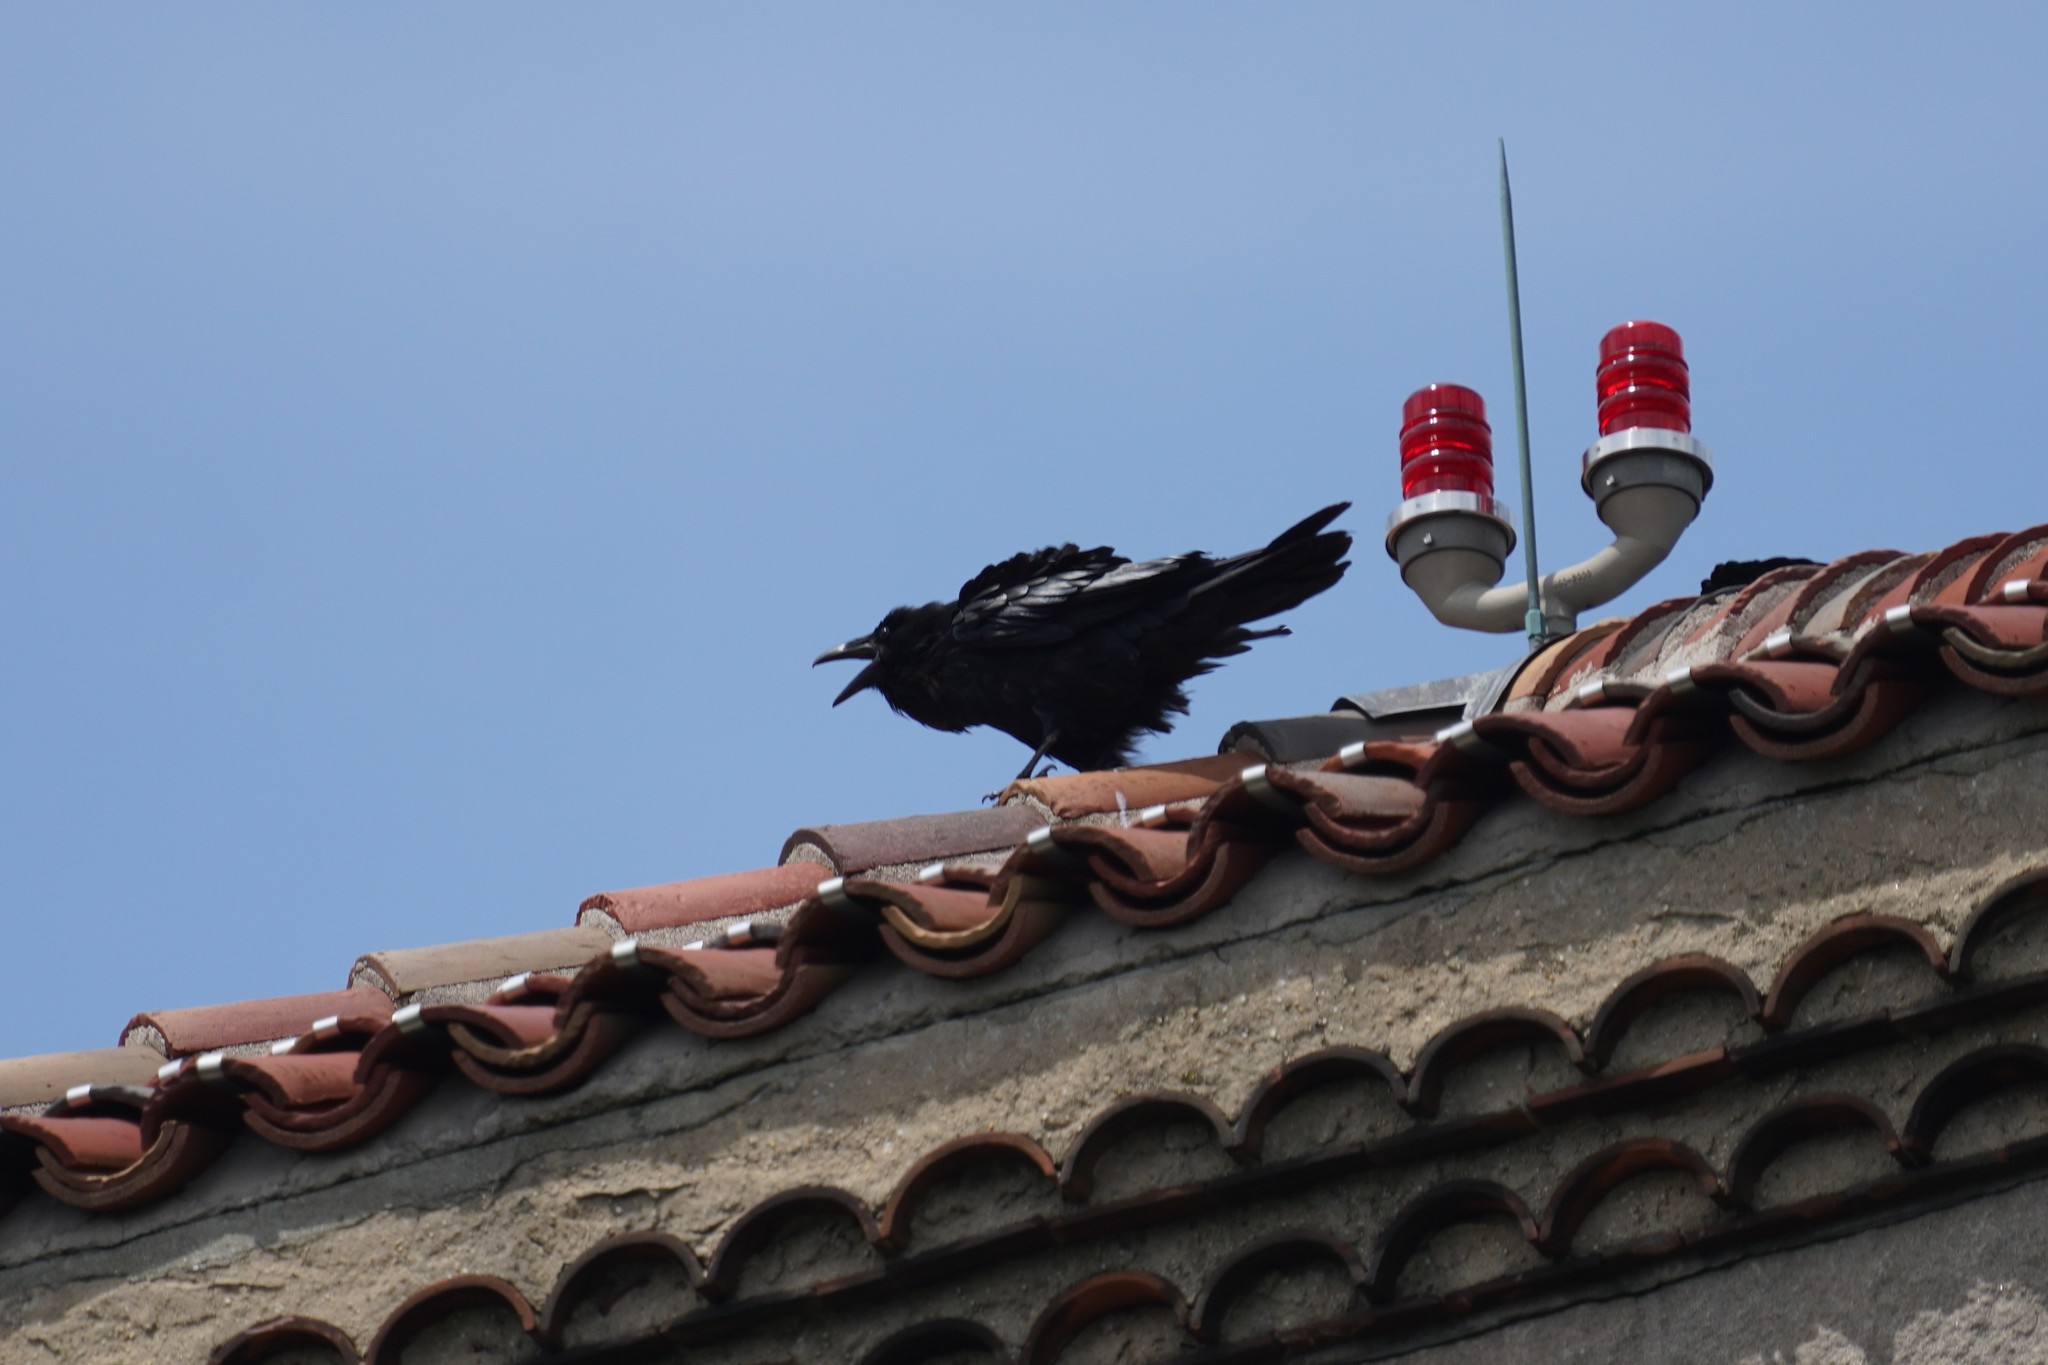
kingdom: Animalia
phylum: Chordata
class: Aves
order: Passeriformes
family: Corvidae
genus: Corvus
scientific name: Corvus corax
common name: Common raven
